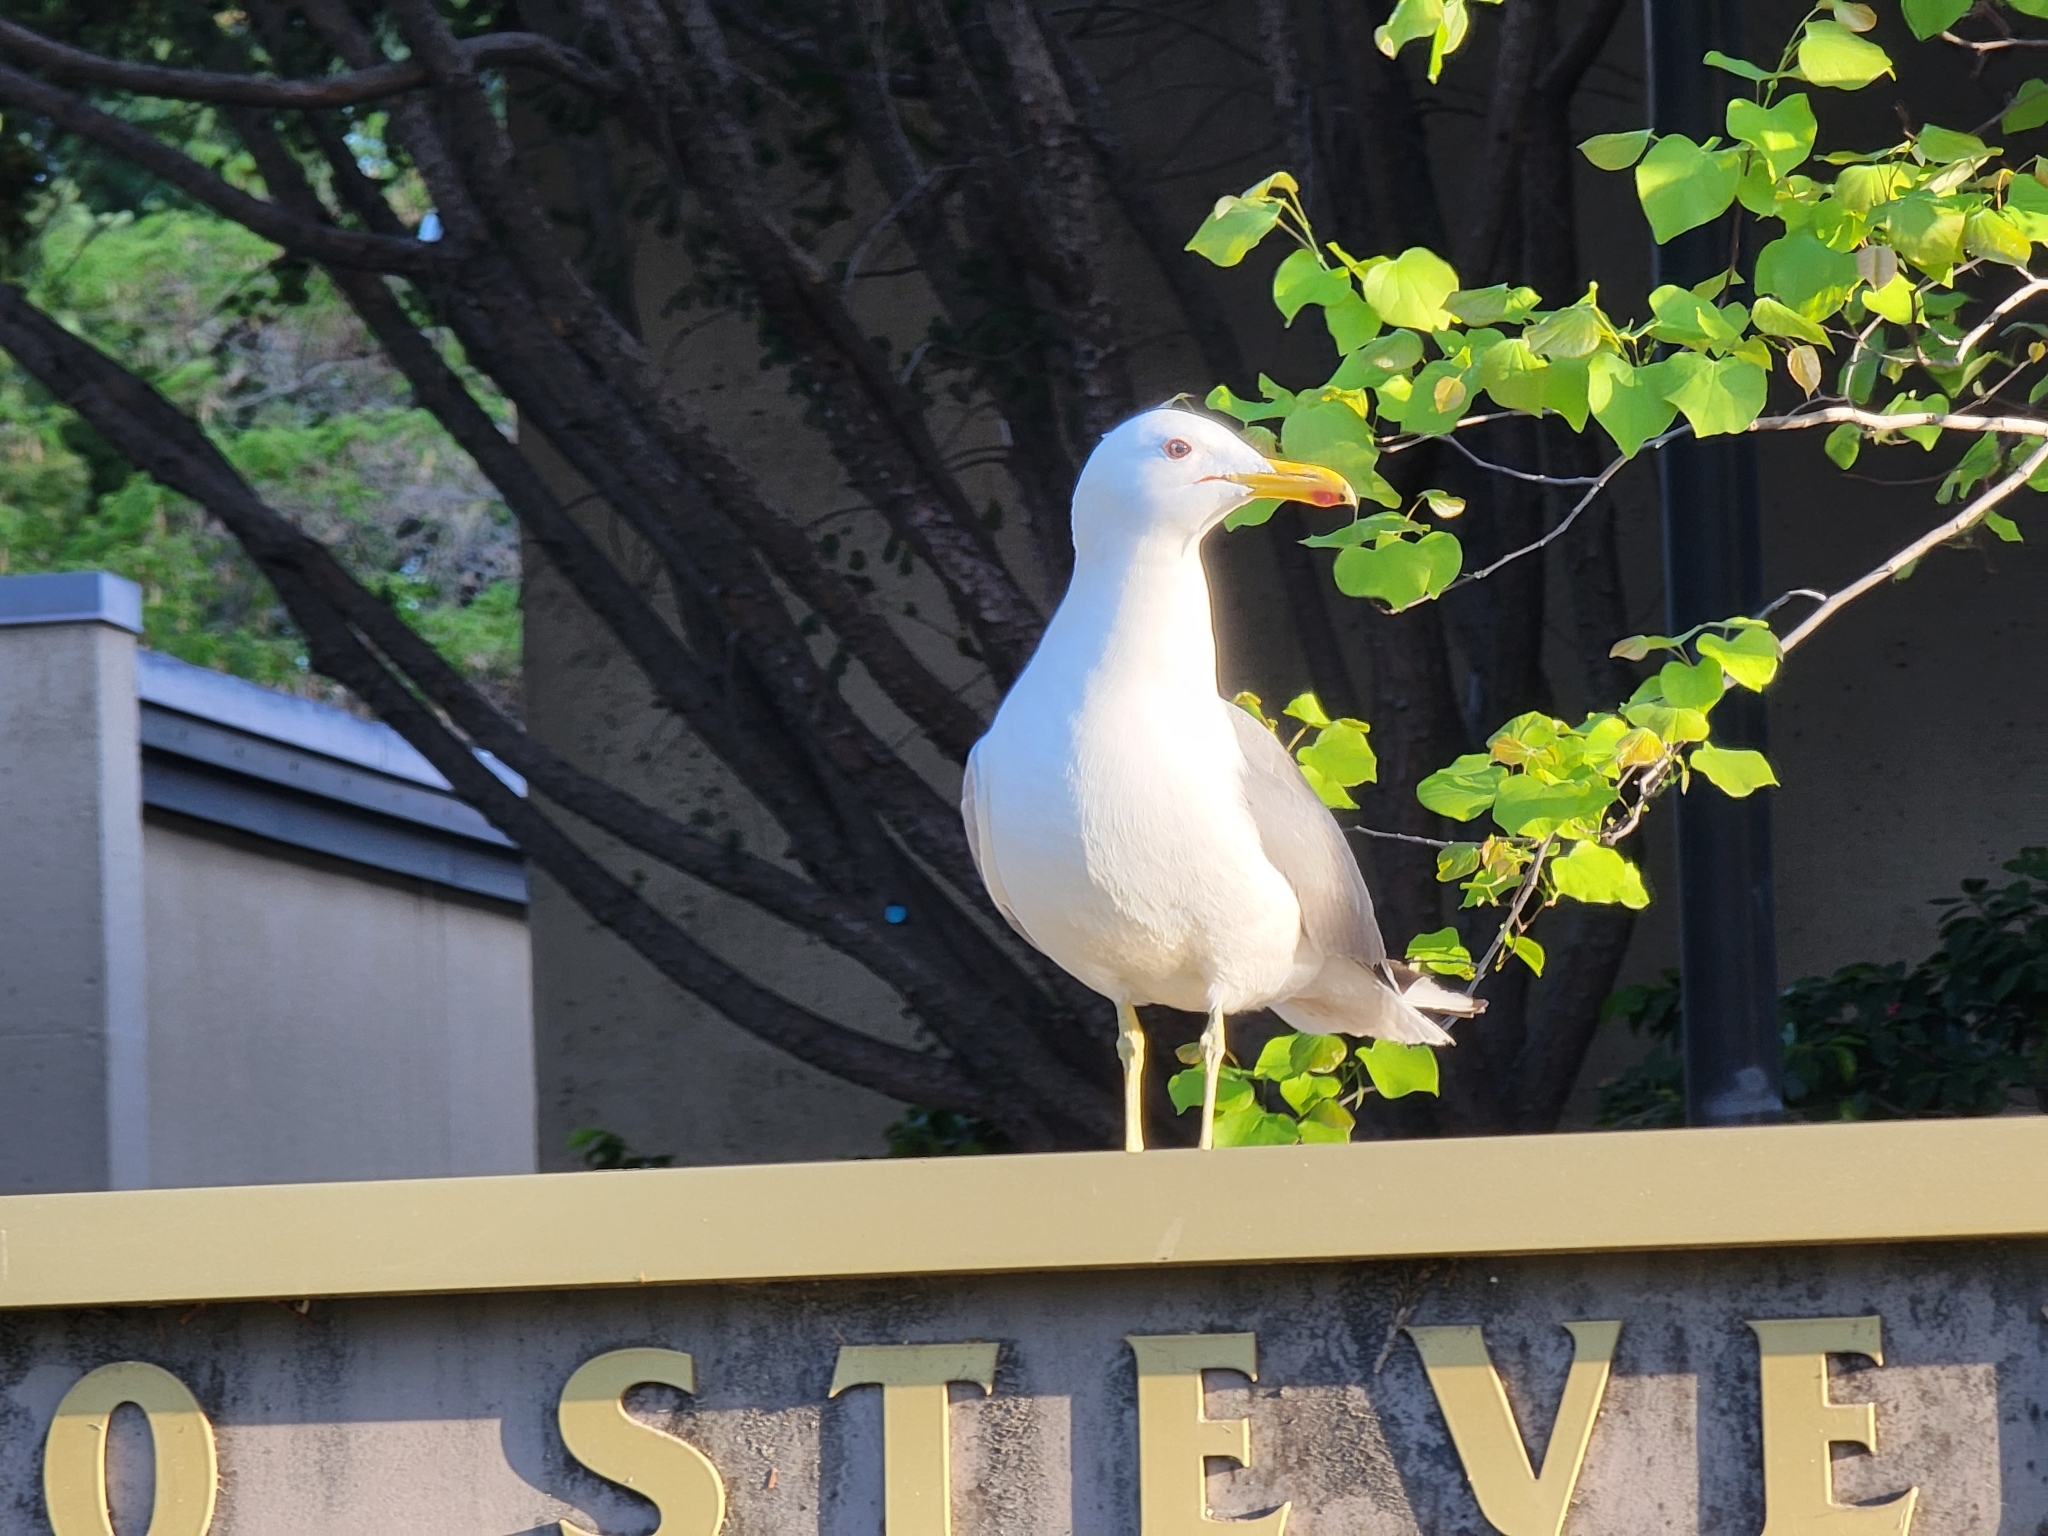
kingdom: Animalia
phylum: Chordata
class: Aves
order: Charadriiformes
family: Laridae
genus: Larus
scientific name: Larus californicus
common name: California gull
